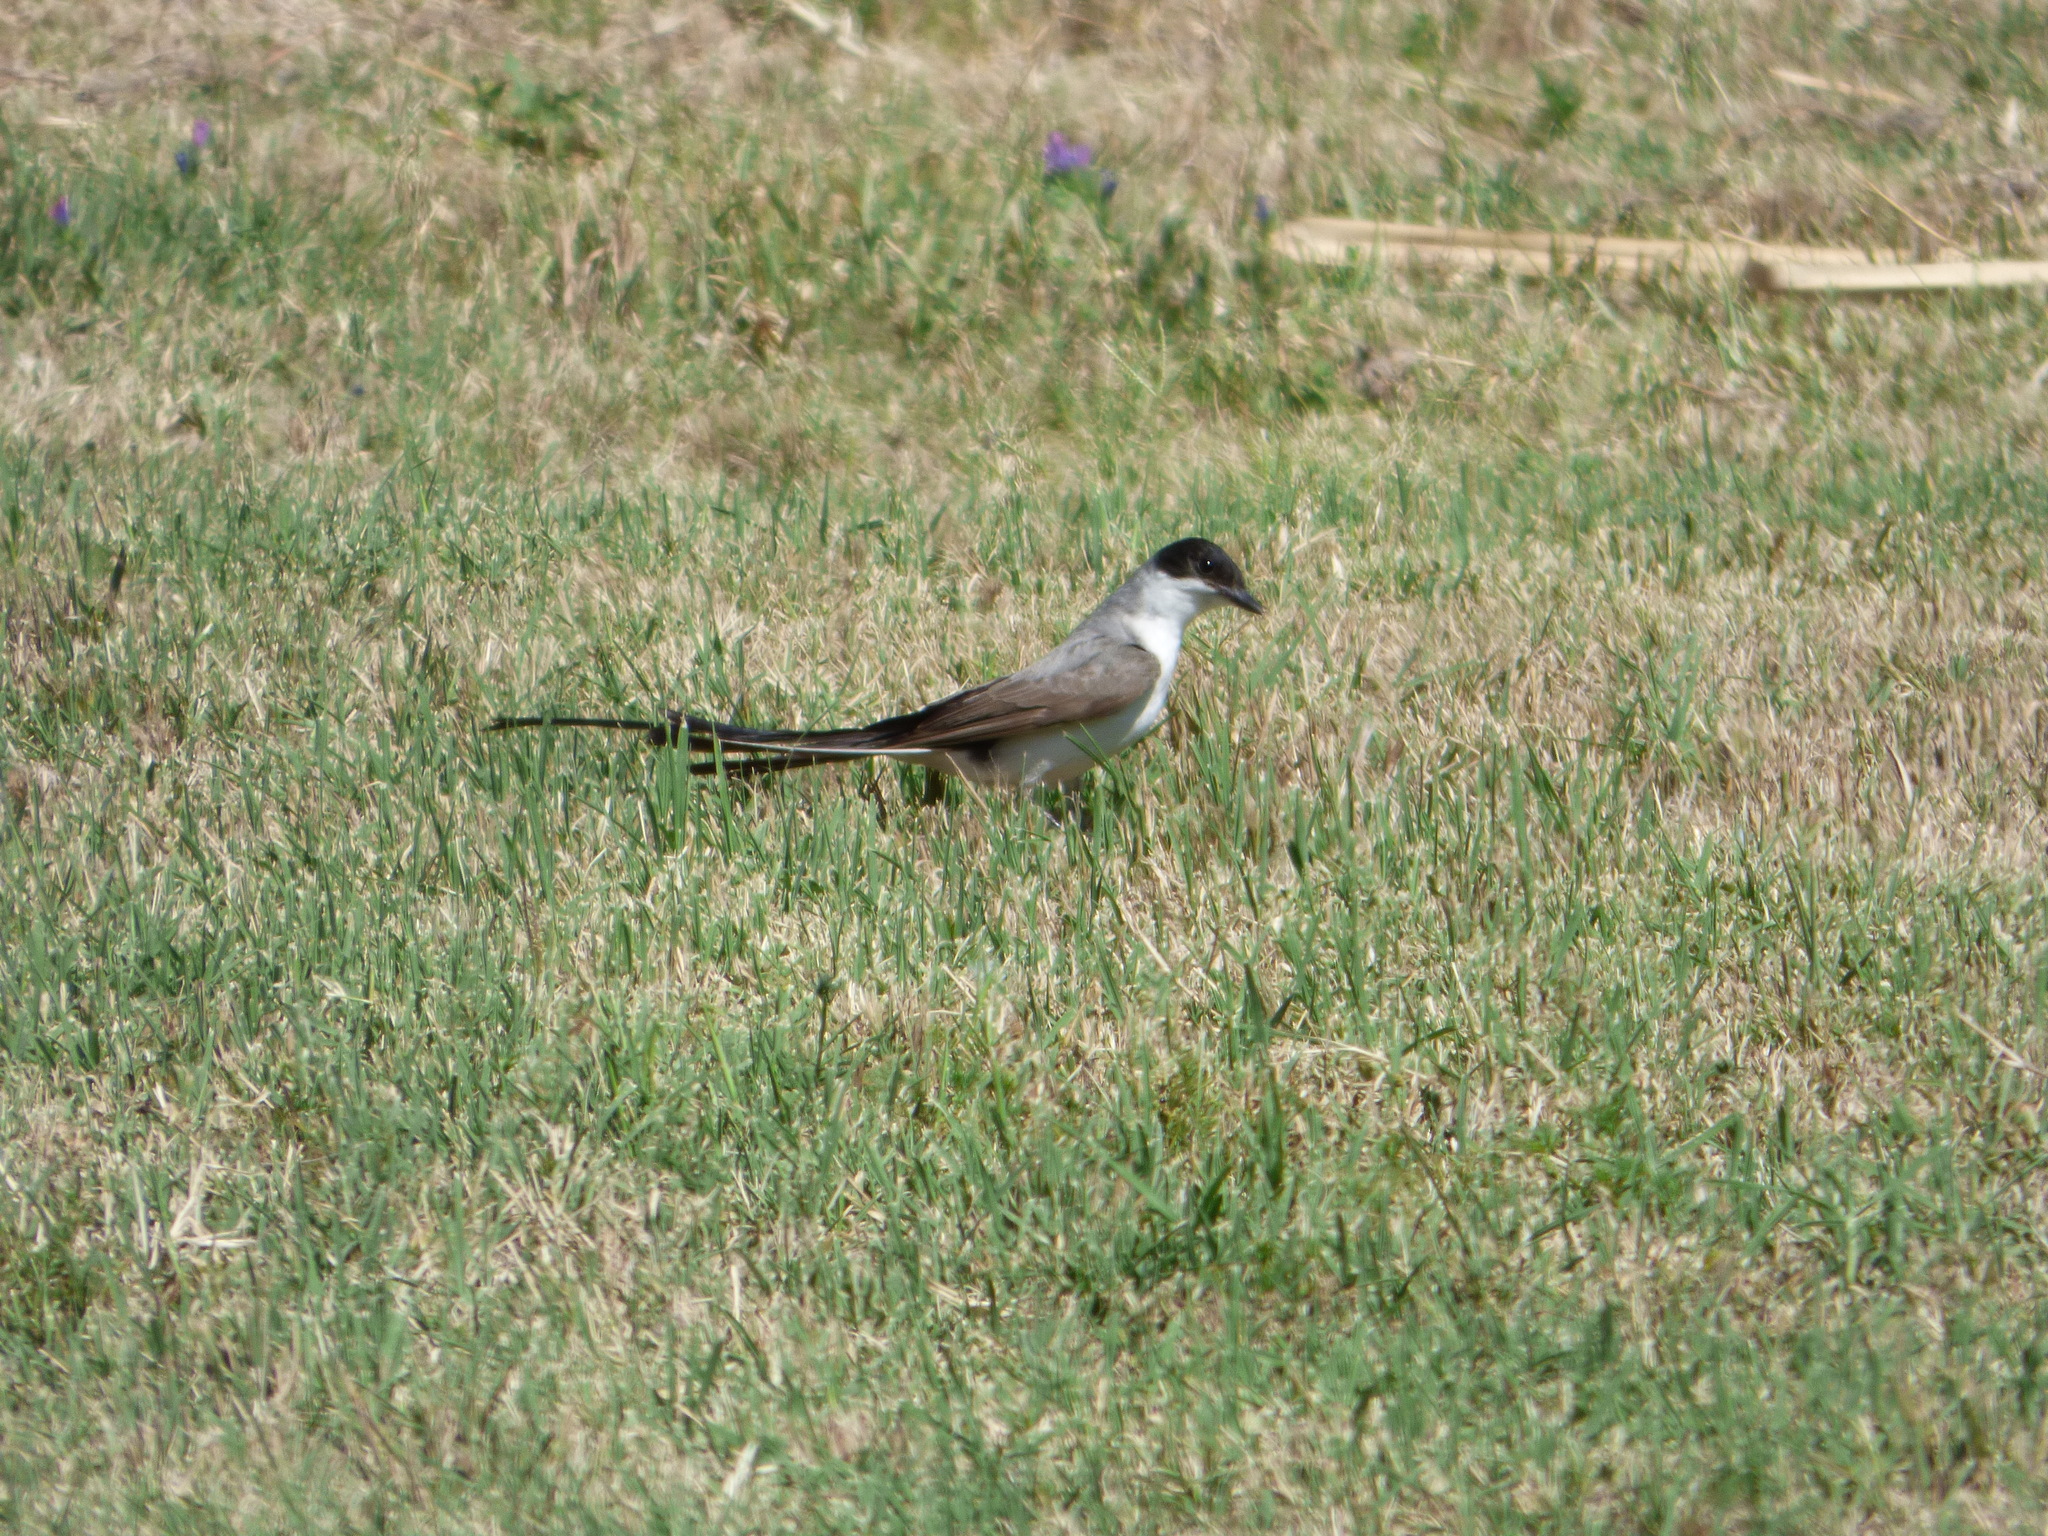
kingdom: Animalia
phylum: Chordata
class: Aves
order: Passeriformes
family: Tyrannidae
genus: Tyrannus
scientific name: Tyrannus savana
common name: Fork-tailed flycatcher
